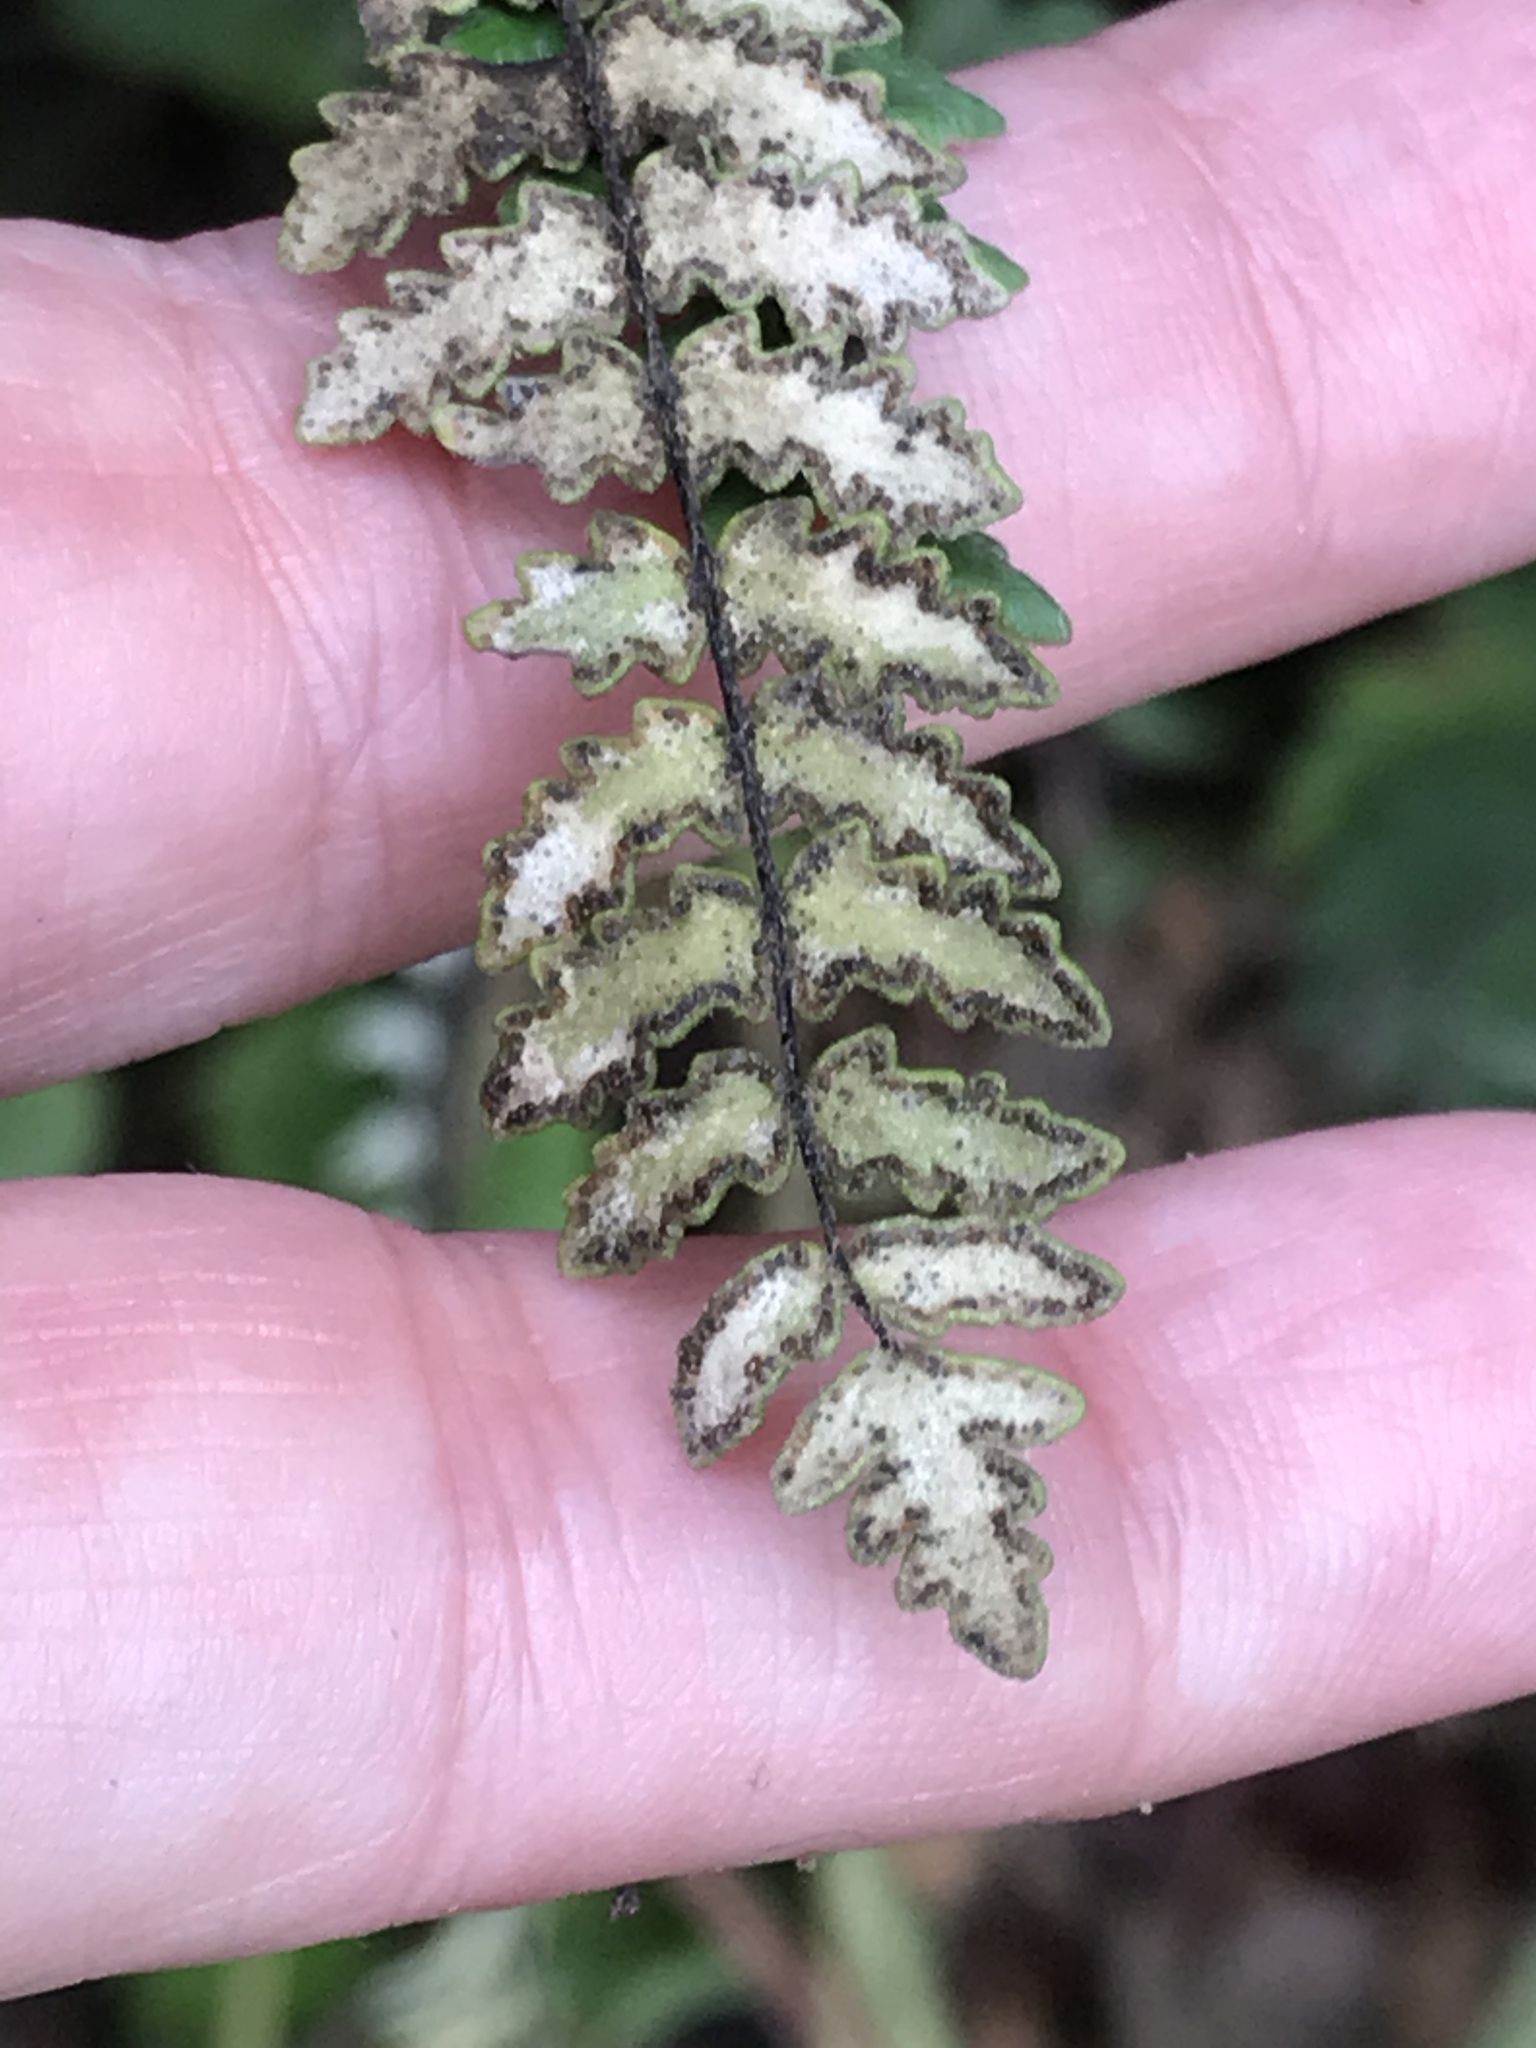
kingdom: Plantae
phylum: Tracheophyta
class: Polypodiopsida
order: Polypodiales
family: Pteridaceae
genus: Myriopteris
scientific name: Myriopteris aurea
